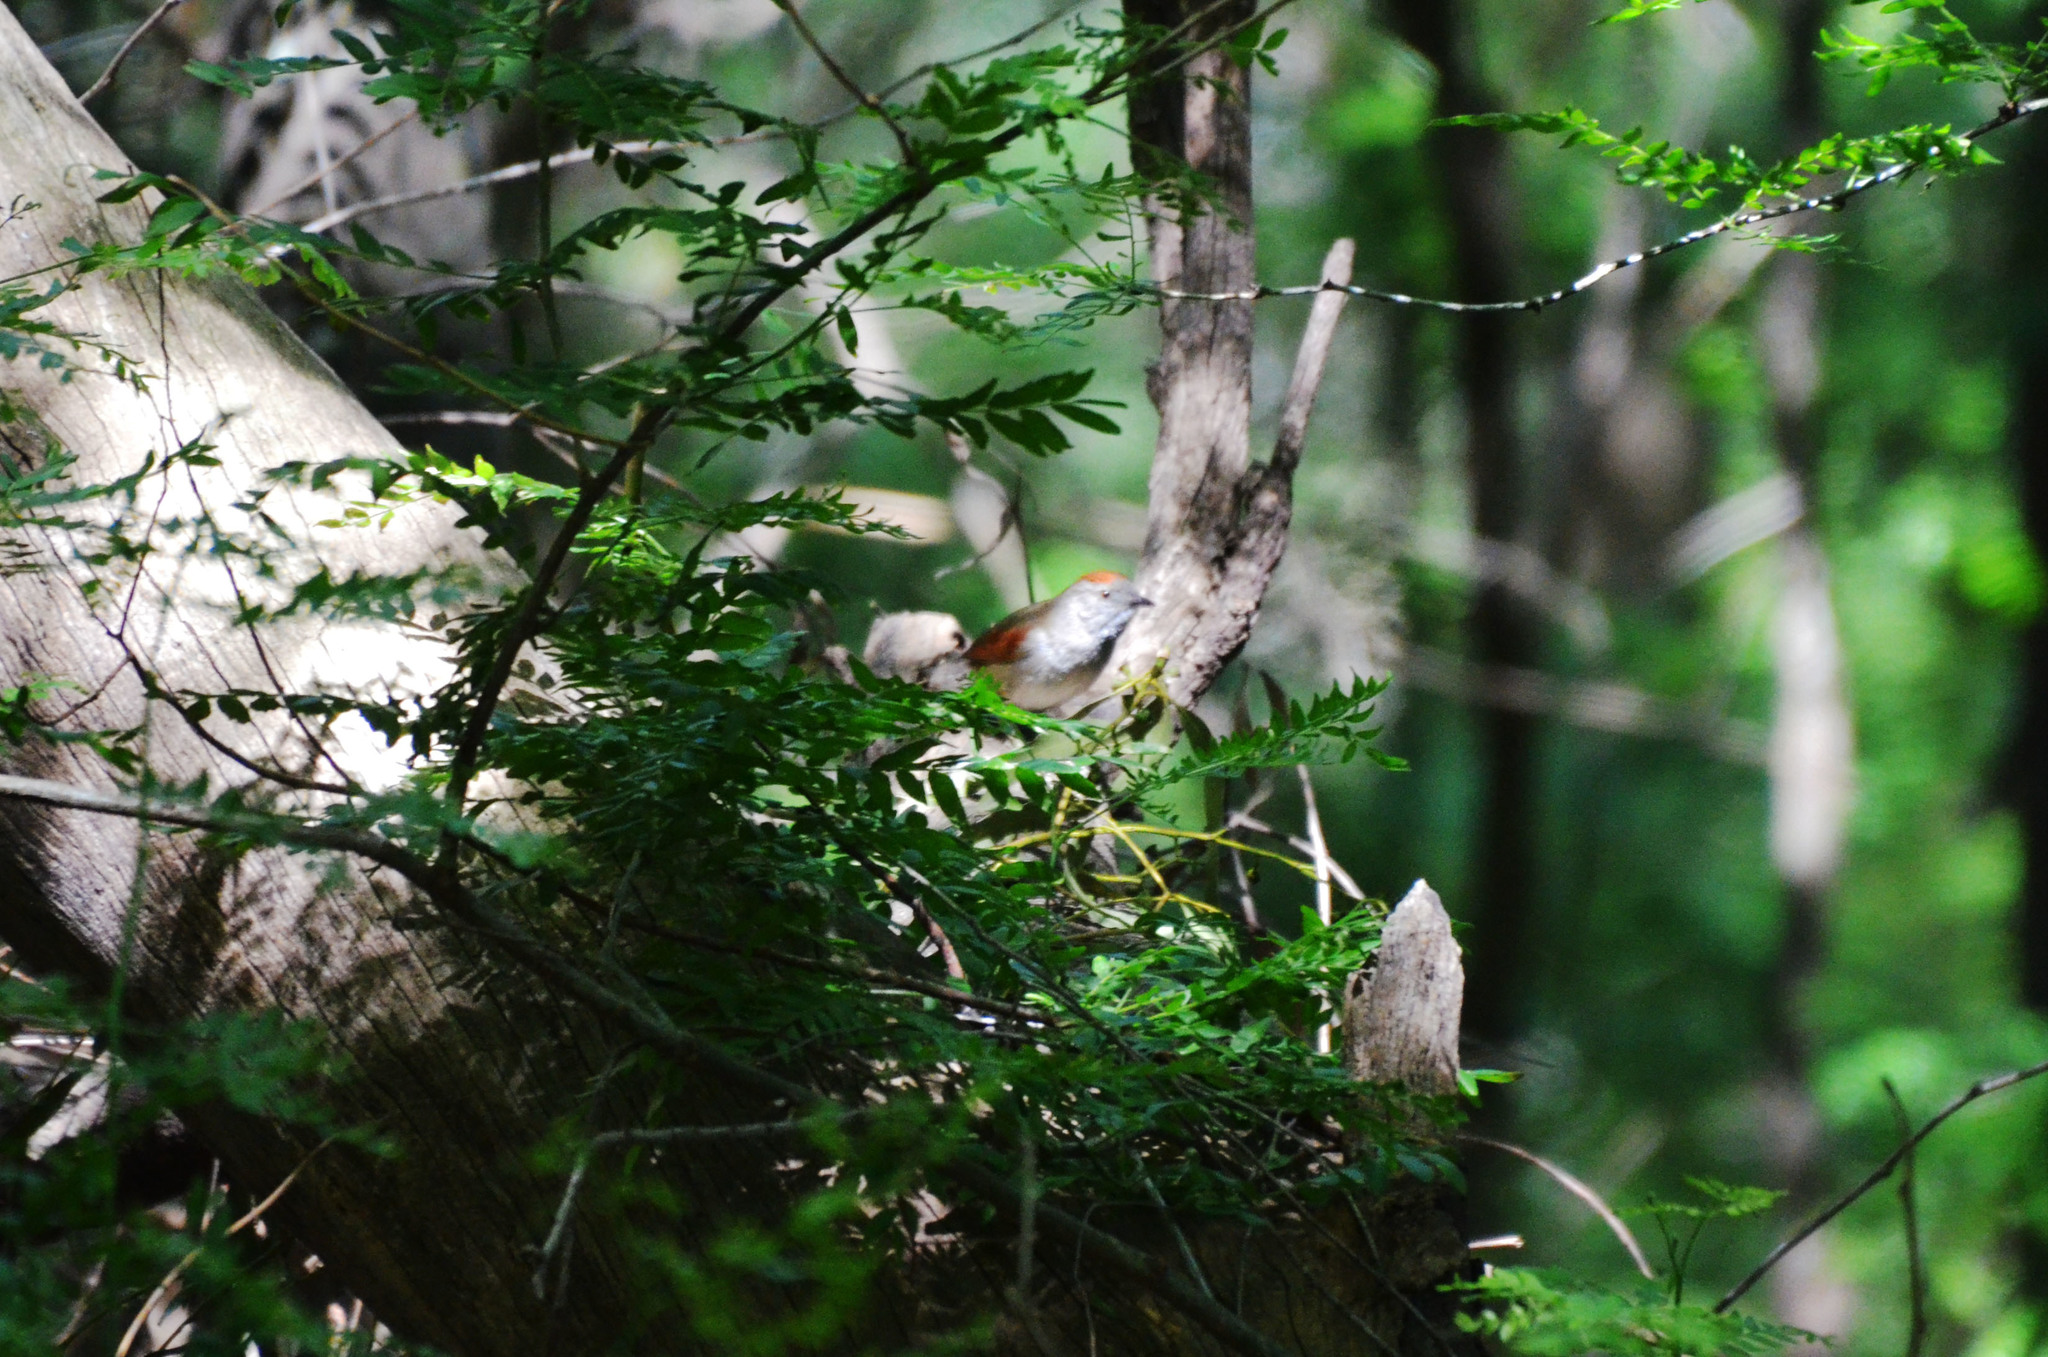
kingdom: Animalia
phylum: Chordata
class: Aves
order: Passeriformes
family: Furnariidae
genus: Synallaxis
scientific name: Synallaxis frontalis
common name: Sooty-fronted spinetail
